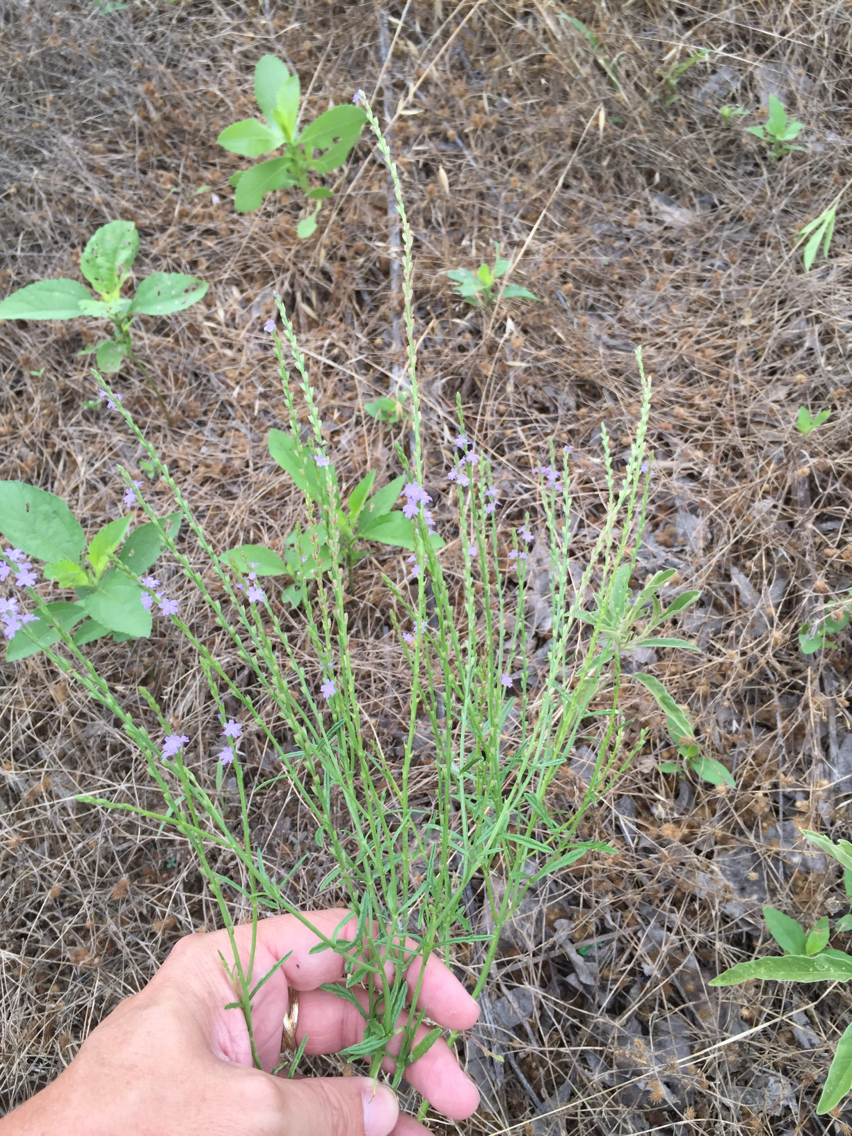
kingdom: Plantae
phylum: Tracheophyta
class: Magnoliopsida
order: Lamiales
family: Verbenaceae
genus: Verbena
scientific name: Verbena halei
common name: Texas vervain
